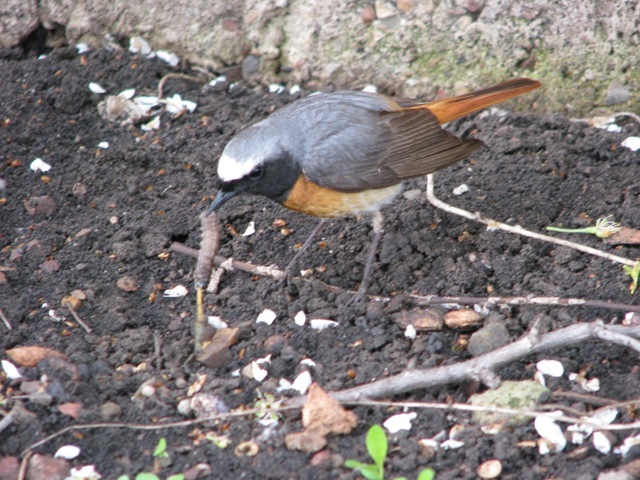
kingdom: Animalia
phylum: Chordata
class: Aves
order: Passeriformes
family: Muscicapidae
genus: Phoenicurus
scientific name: Phoenicurus phoenicurus
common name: Common redstart
